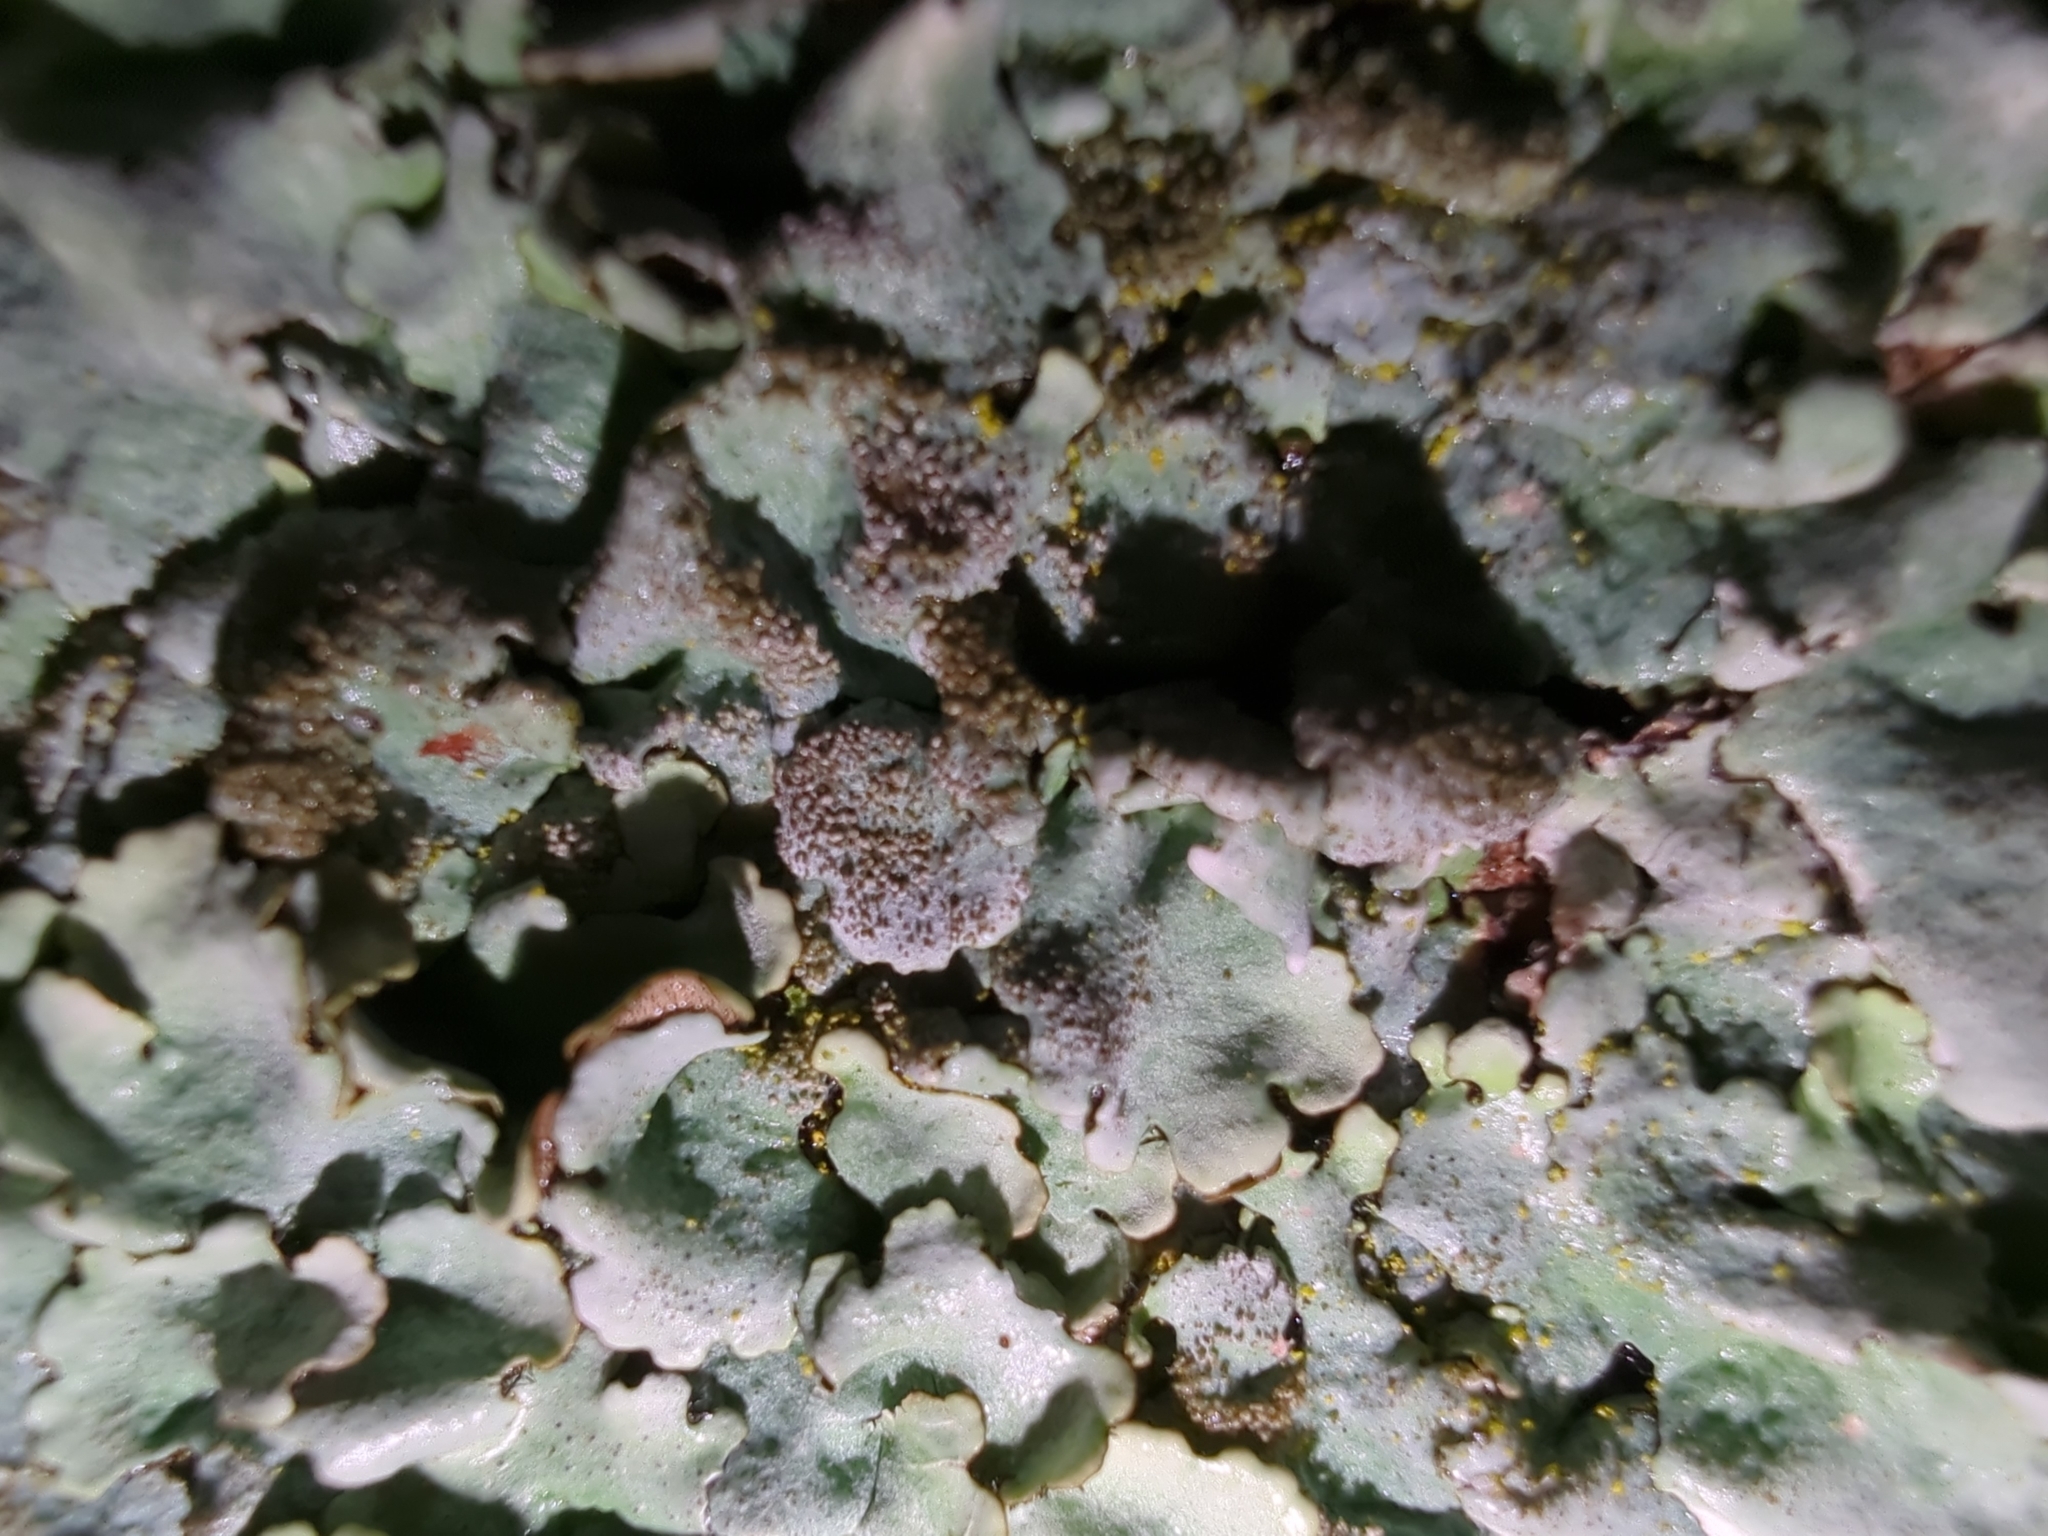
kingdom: Fungi
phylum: Ascomycota
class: Lecanoromycetes
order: Lecanorales
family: Parmeliaceae
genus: Parmelina
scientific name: Parmelina tiliacea
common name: Linden shield lichen
